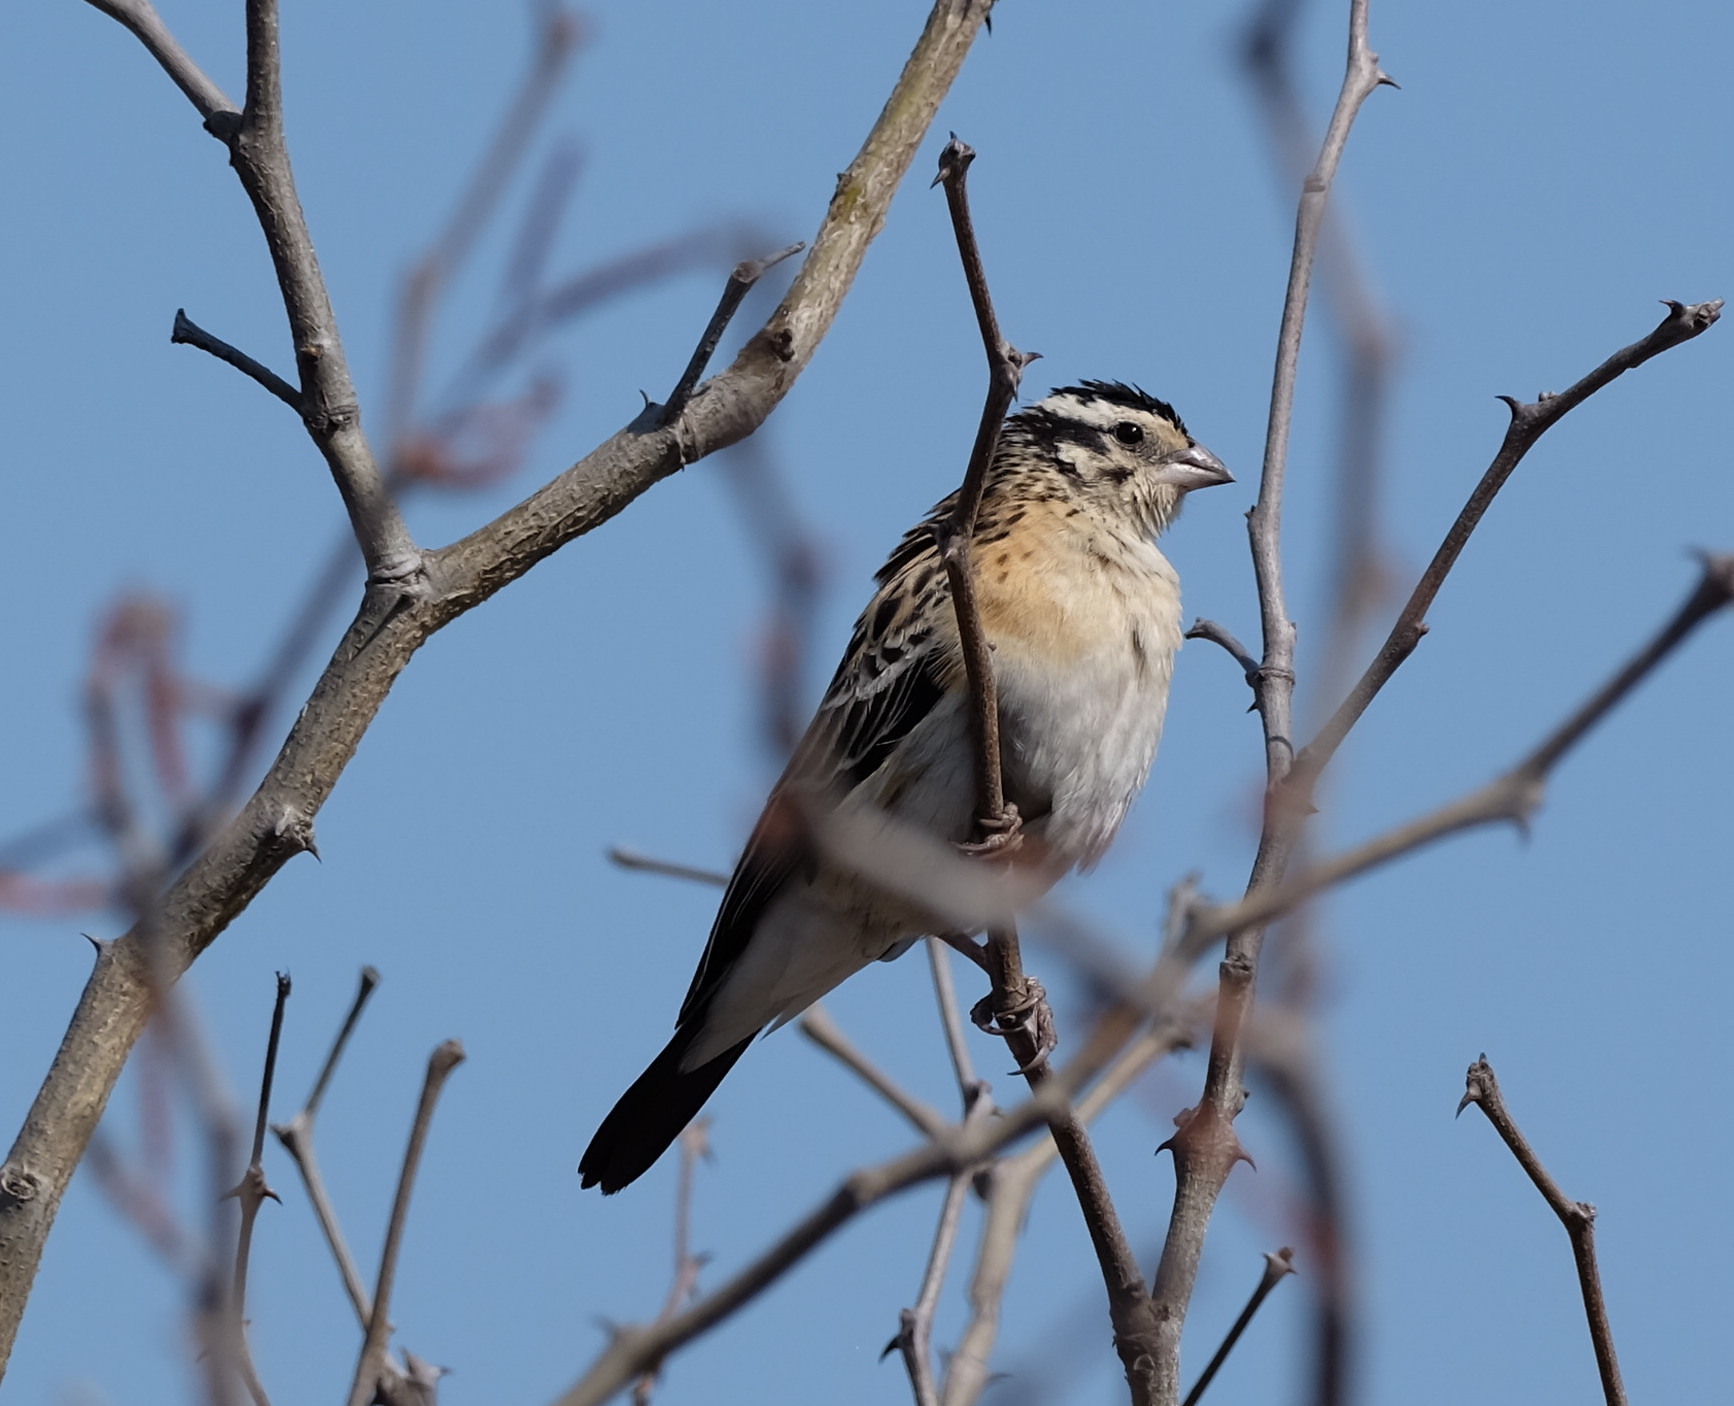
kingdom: Animalia
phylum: Chordata
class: Aves
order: Passeriformes
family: Viduidae
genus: Vidua
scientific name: Vidua paradisaea
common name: Long-tailed paradise whydah
